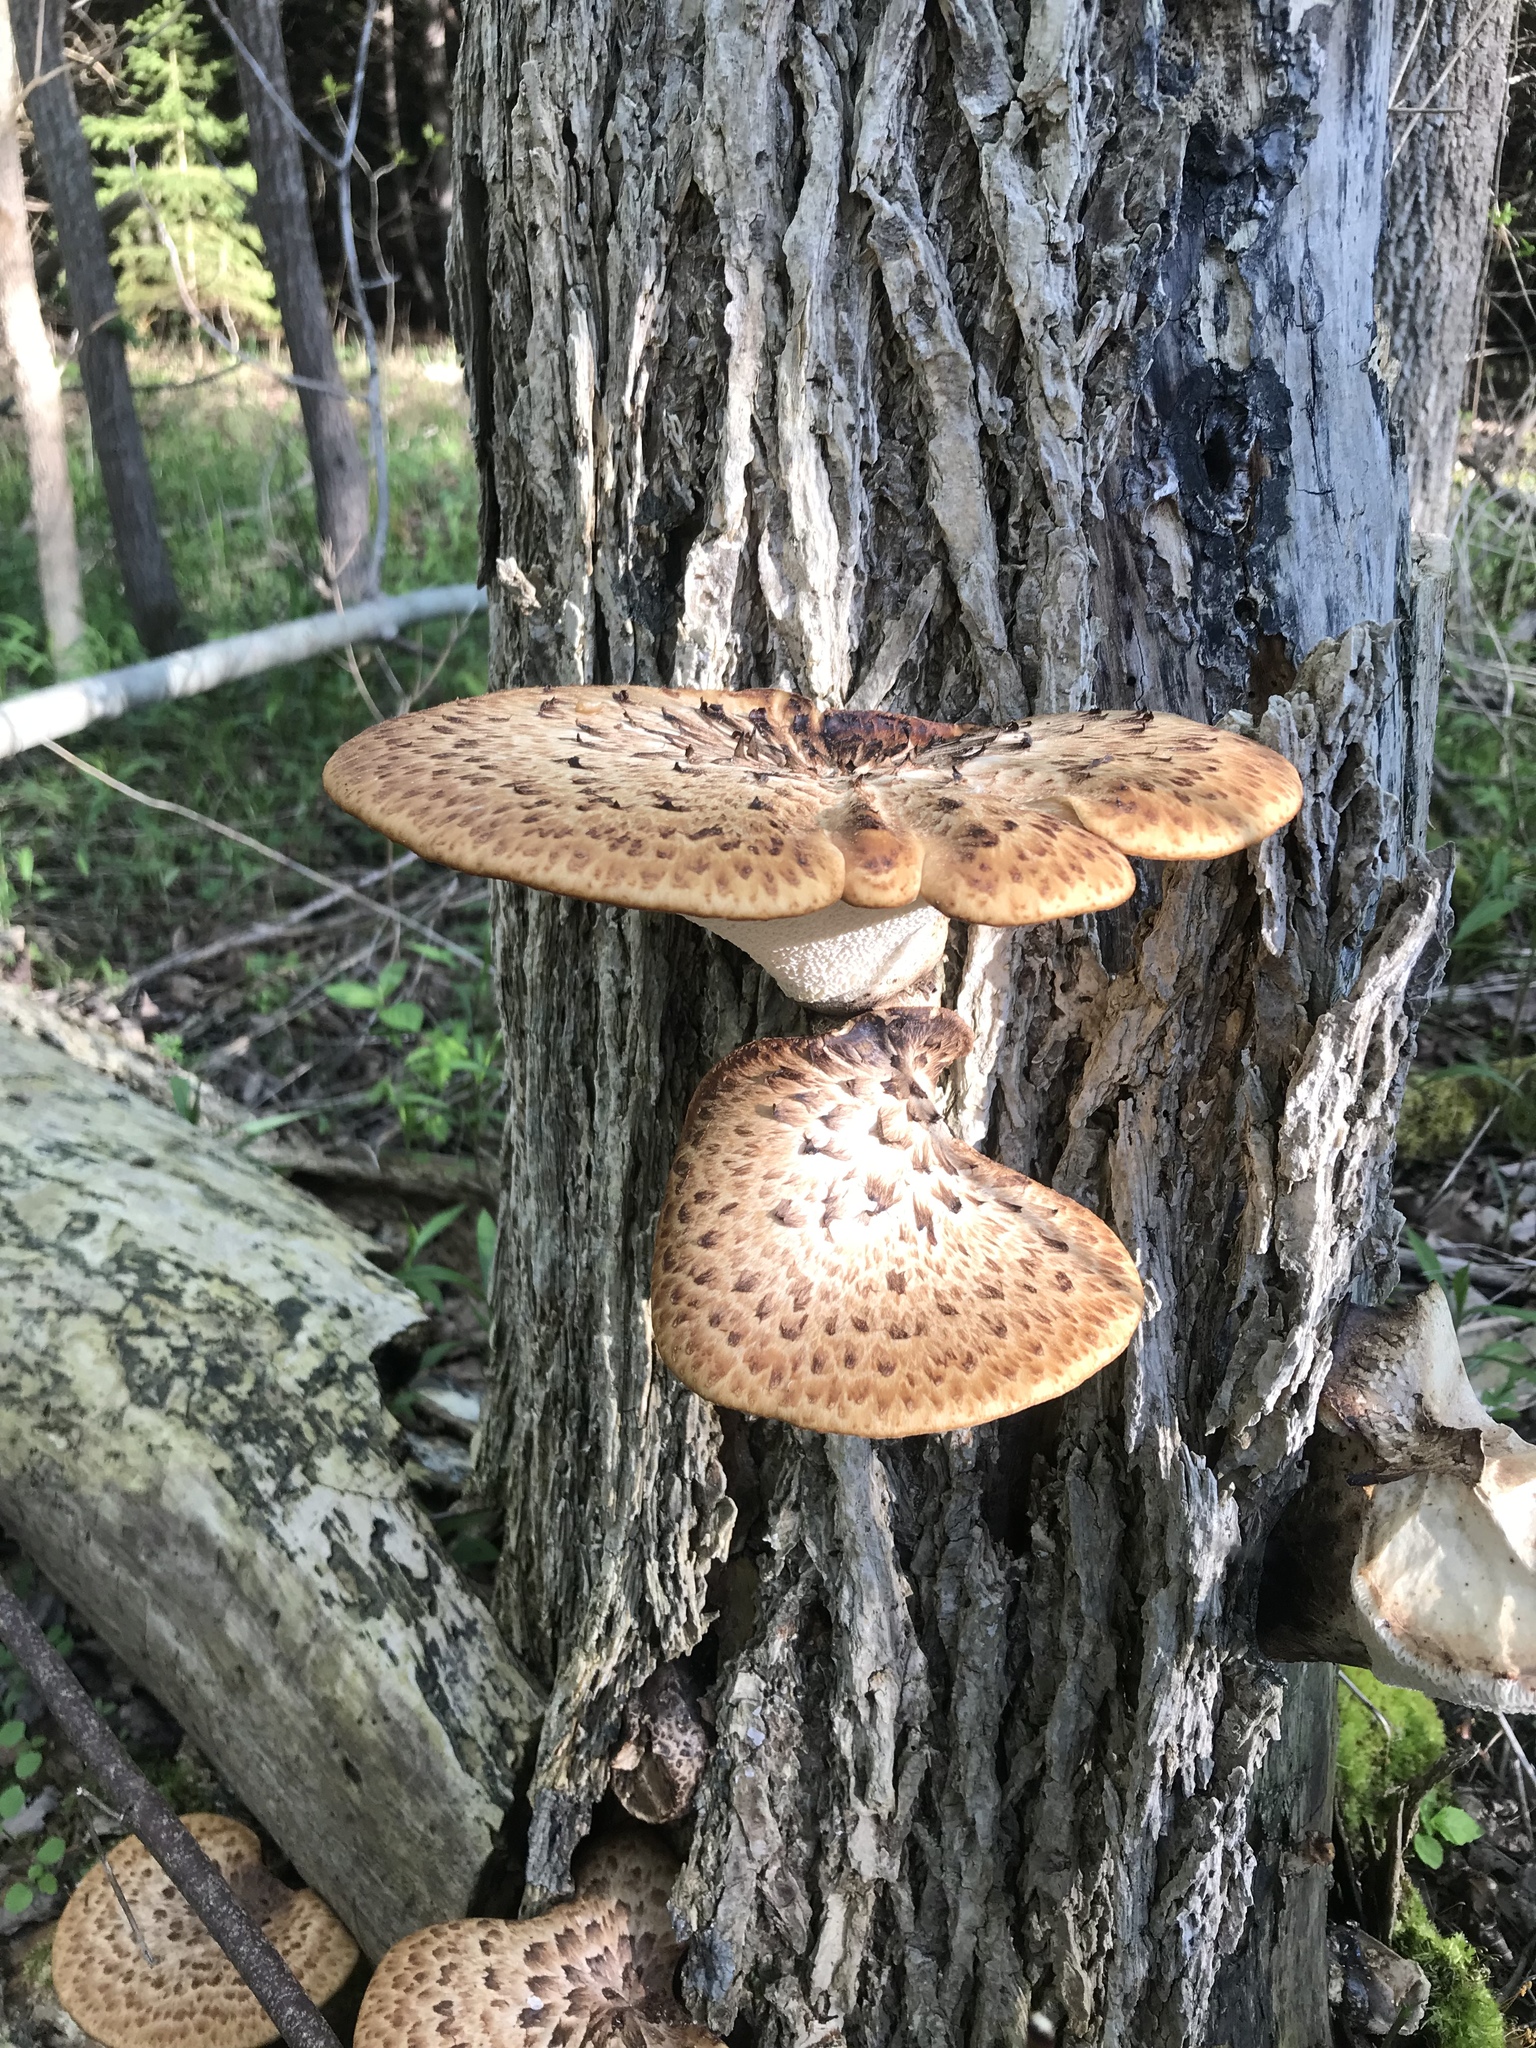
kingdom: Fungi
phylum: Basidiomycota
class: Agaricomycetes
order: Polyporales
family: Polyporaceae
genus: Cerioporus
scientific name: Cerioporus squamosus
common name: Dryad's saddle
